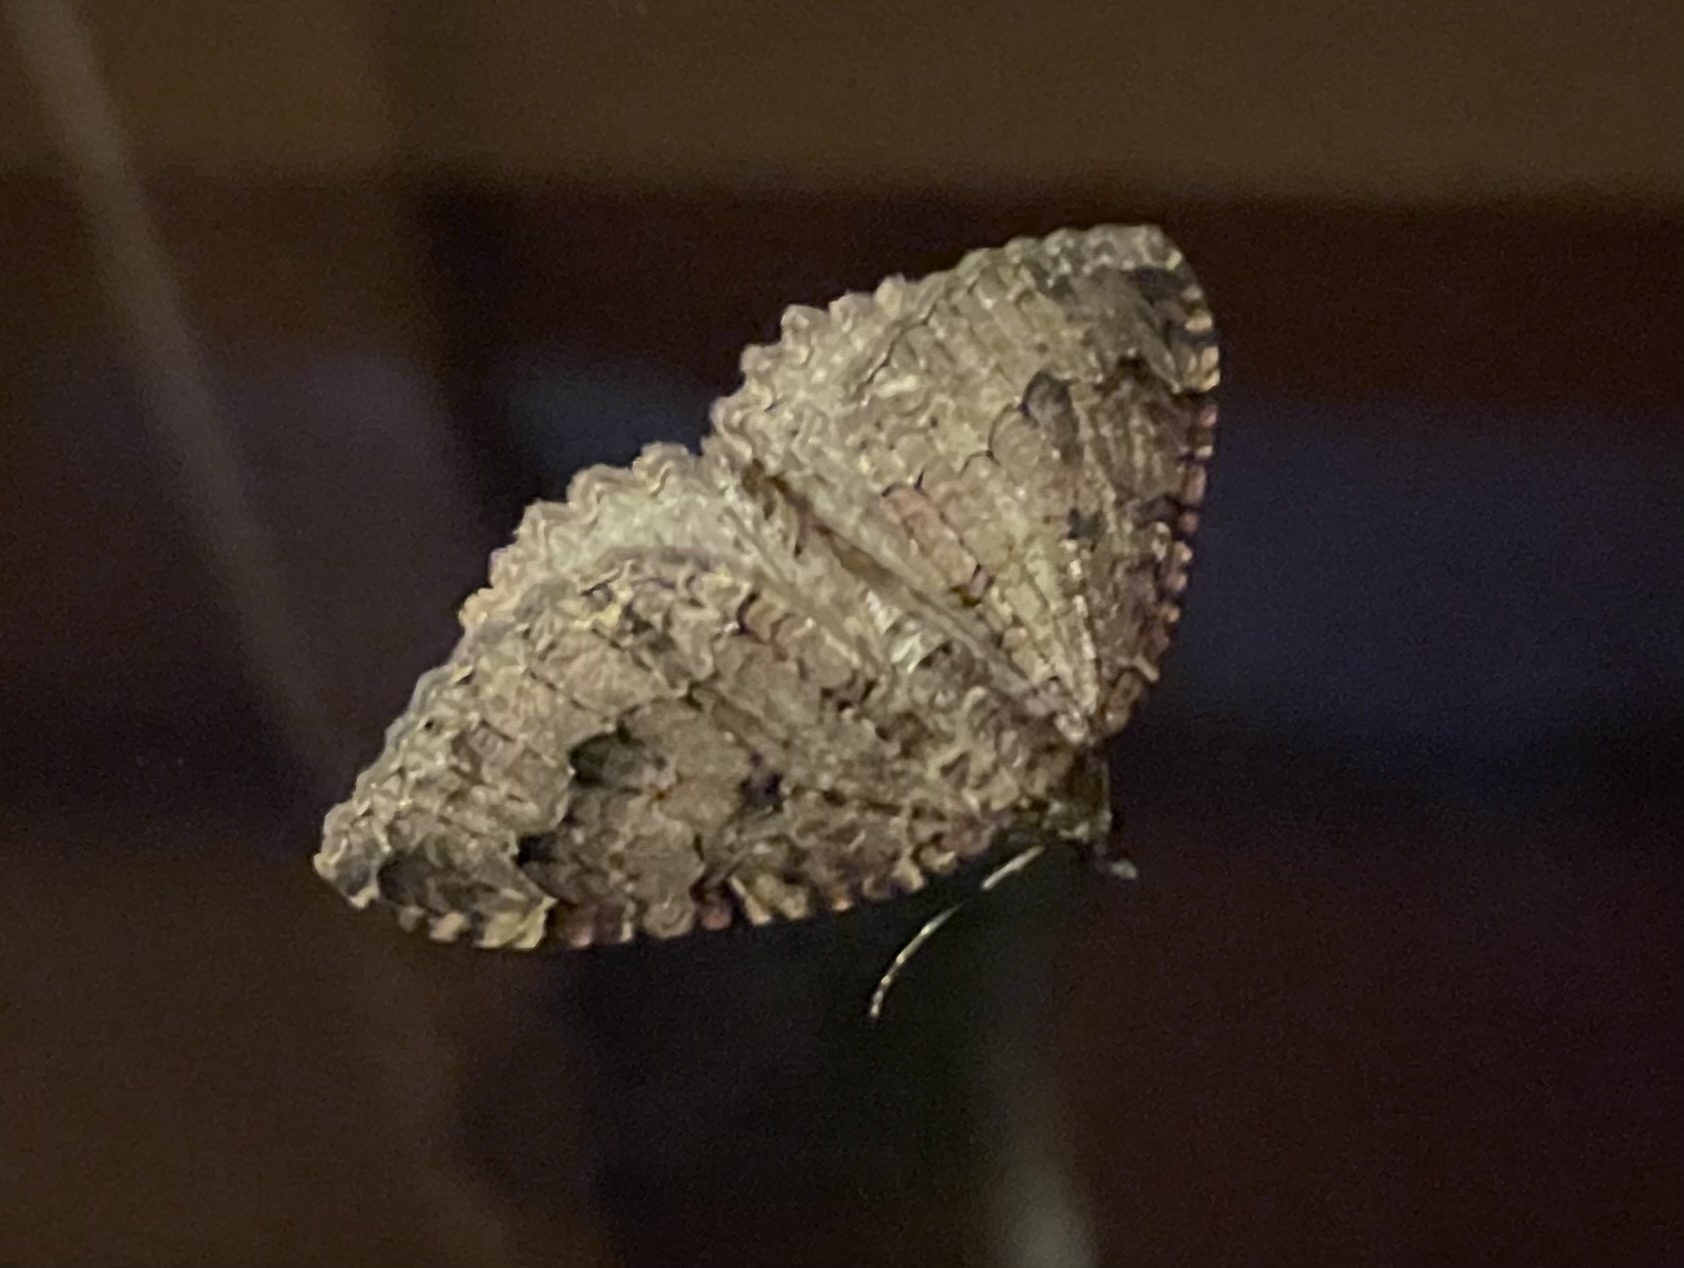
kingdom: Animalia
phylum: Arthropoda
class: Insecta
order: Lepidoptera
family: Geometridae
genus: Triphosa
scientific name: Triphosa dubitata
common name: Tissue
